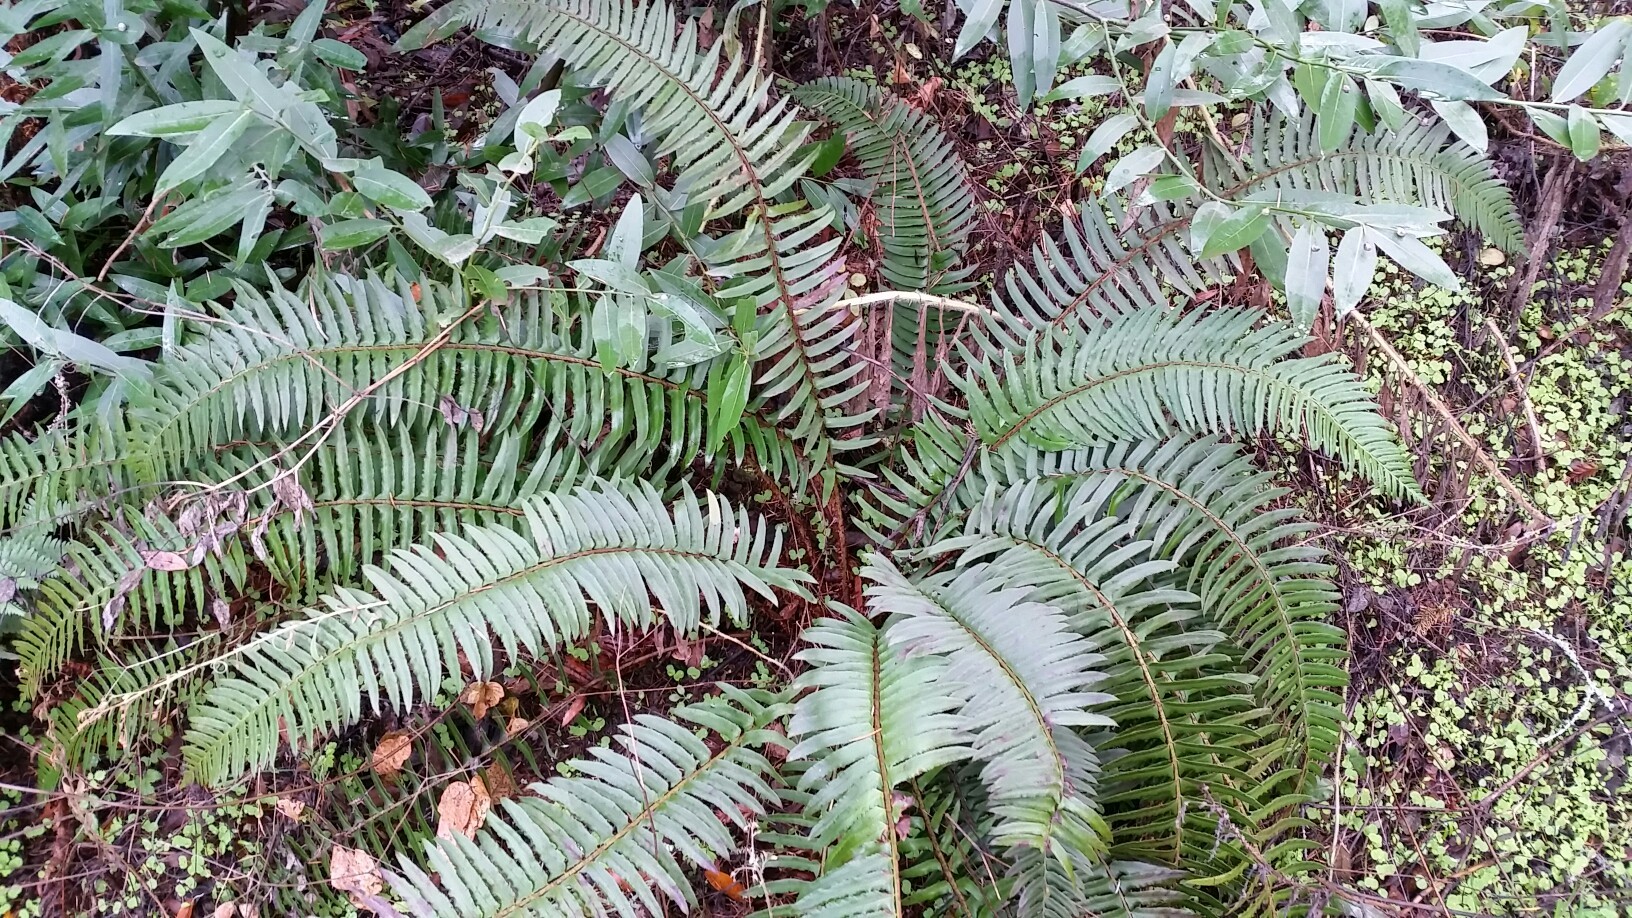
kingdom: Plantae
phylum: Tracheophyta
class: Polypodiopsida
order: Polypodiales
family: Dryopteridaceae
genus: Polystichum
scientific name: Polystichum munitum
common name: Western sword-fern
